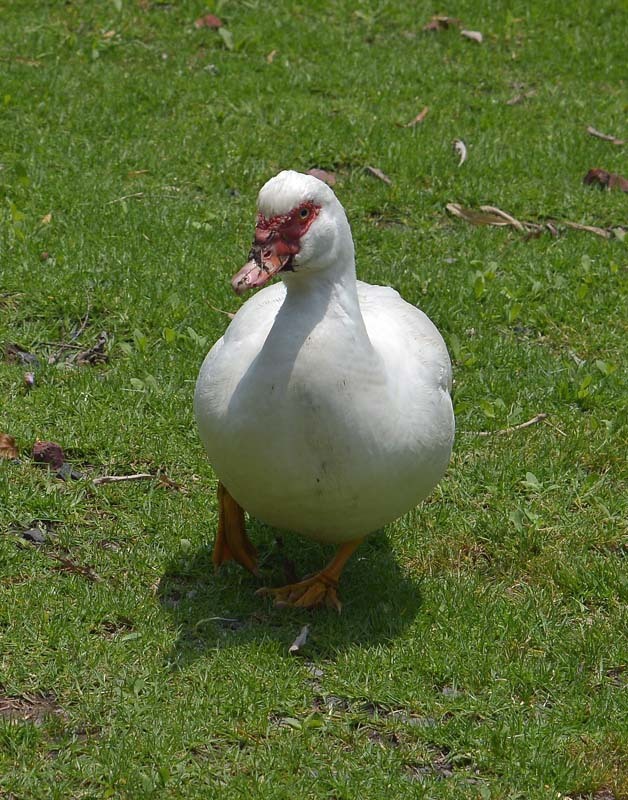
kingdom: Animalia
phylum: Chordata
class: Aves
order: Anseriformes
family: Anatidae
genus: Cairina
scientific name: Cairina moschata
